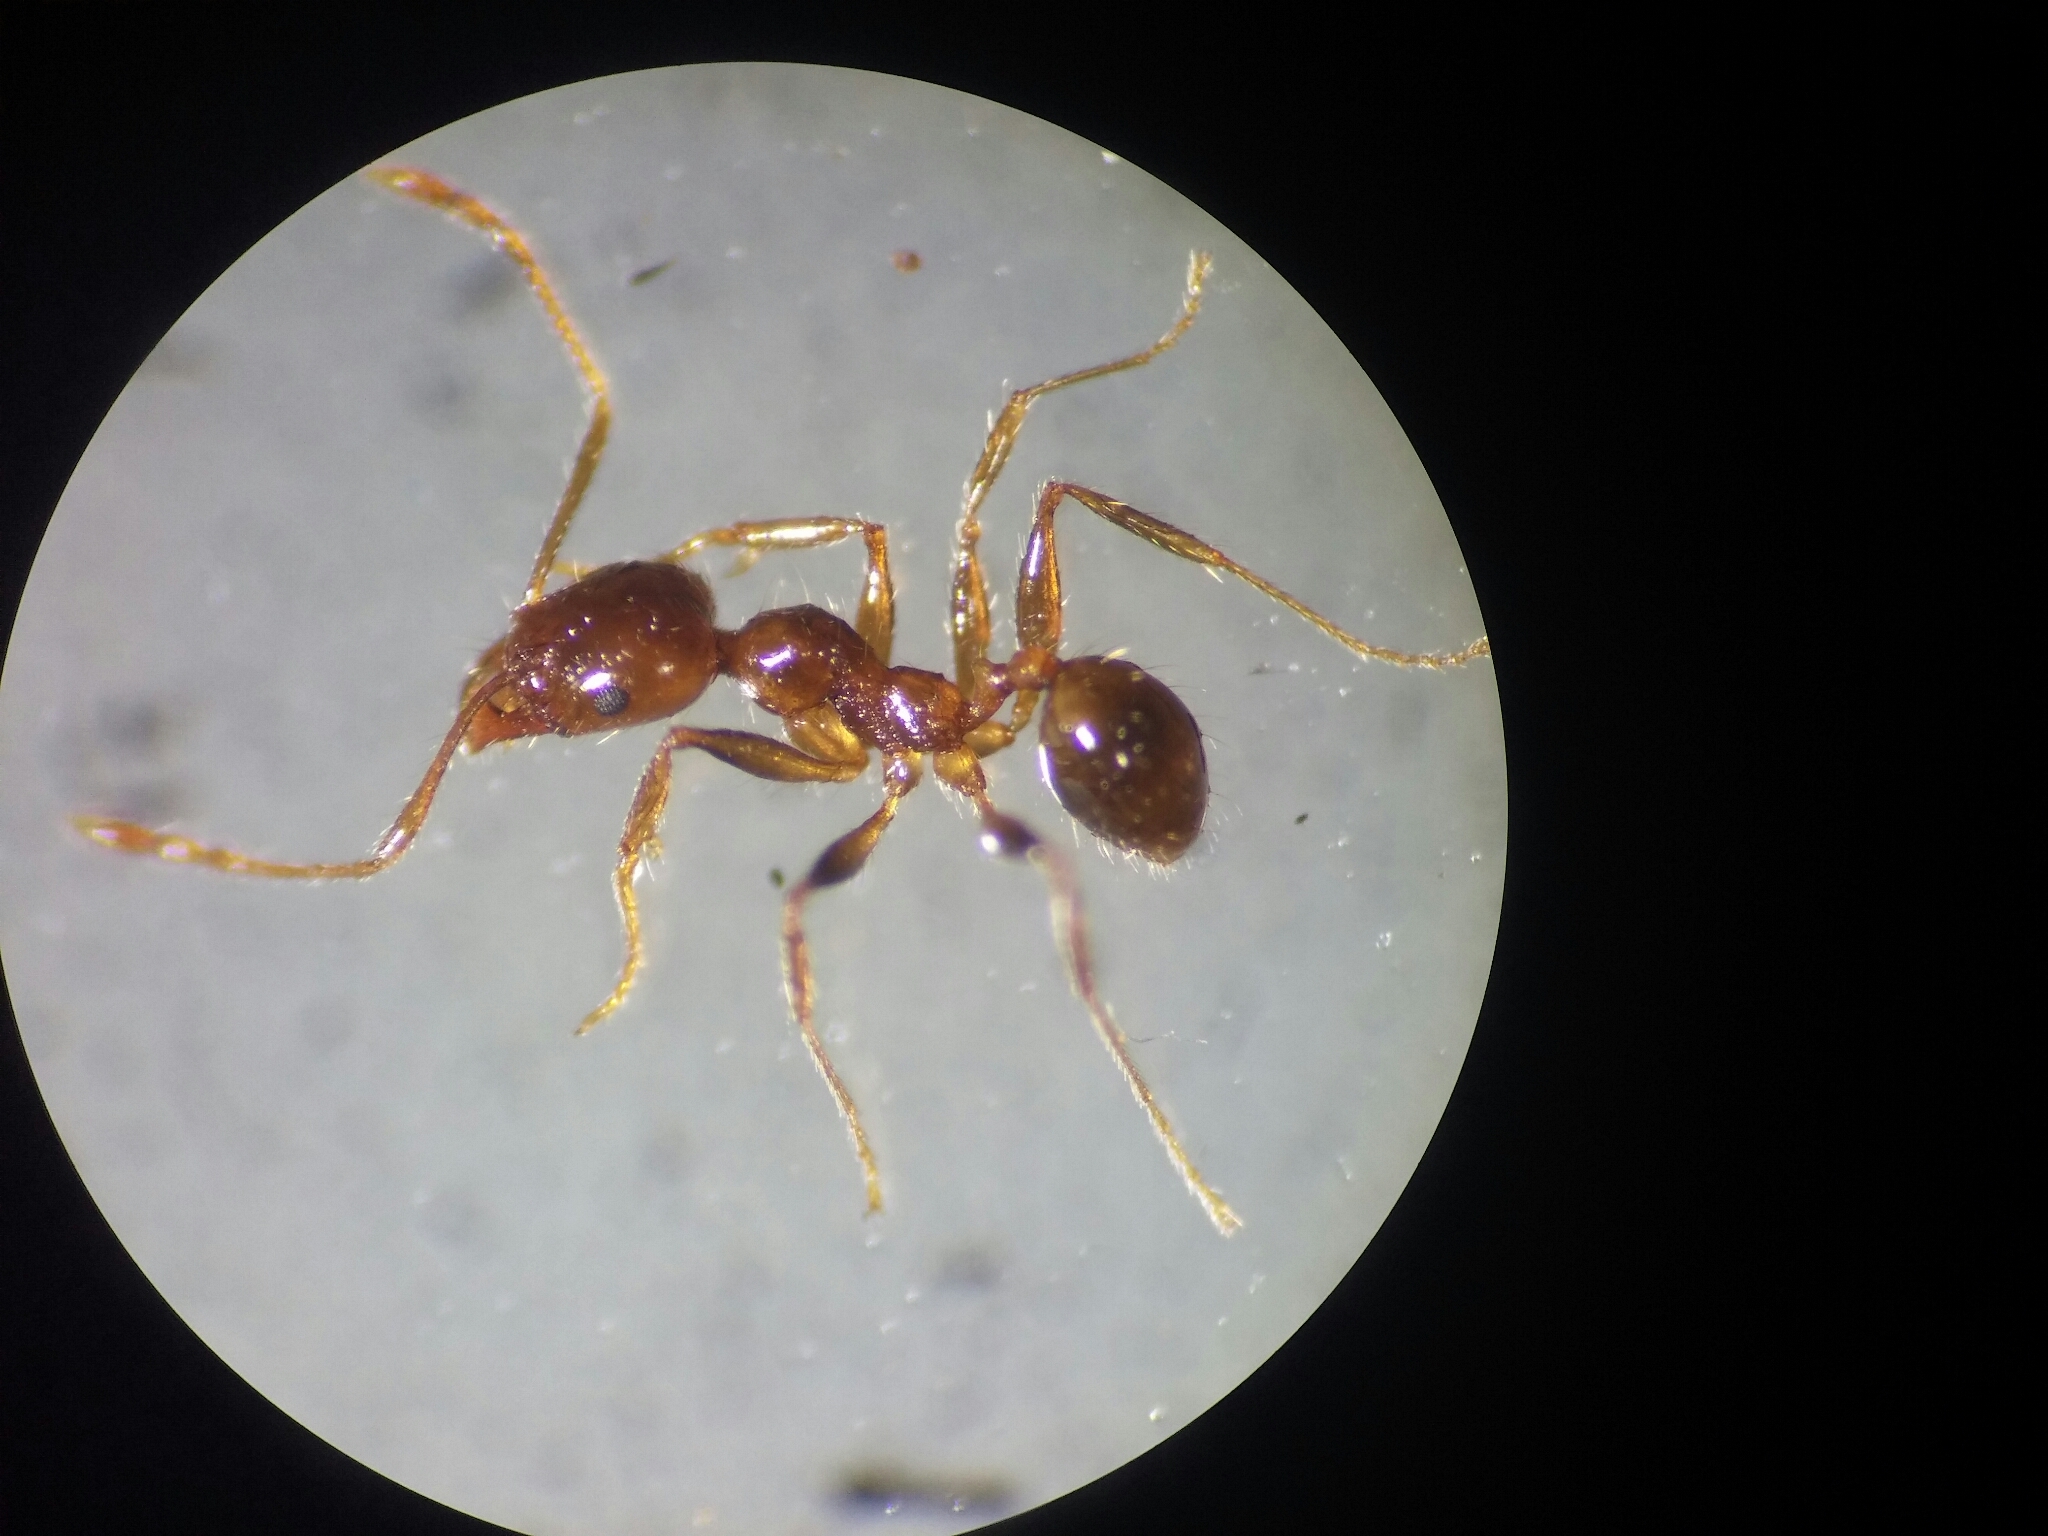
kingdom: Animalia
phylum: Arthropoda
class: Insecta
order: Hymenoptera
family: Formicidae
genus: Pheidole
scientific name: Pheidole pallidula
